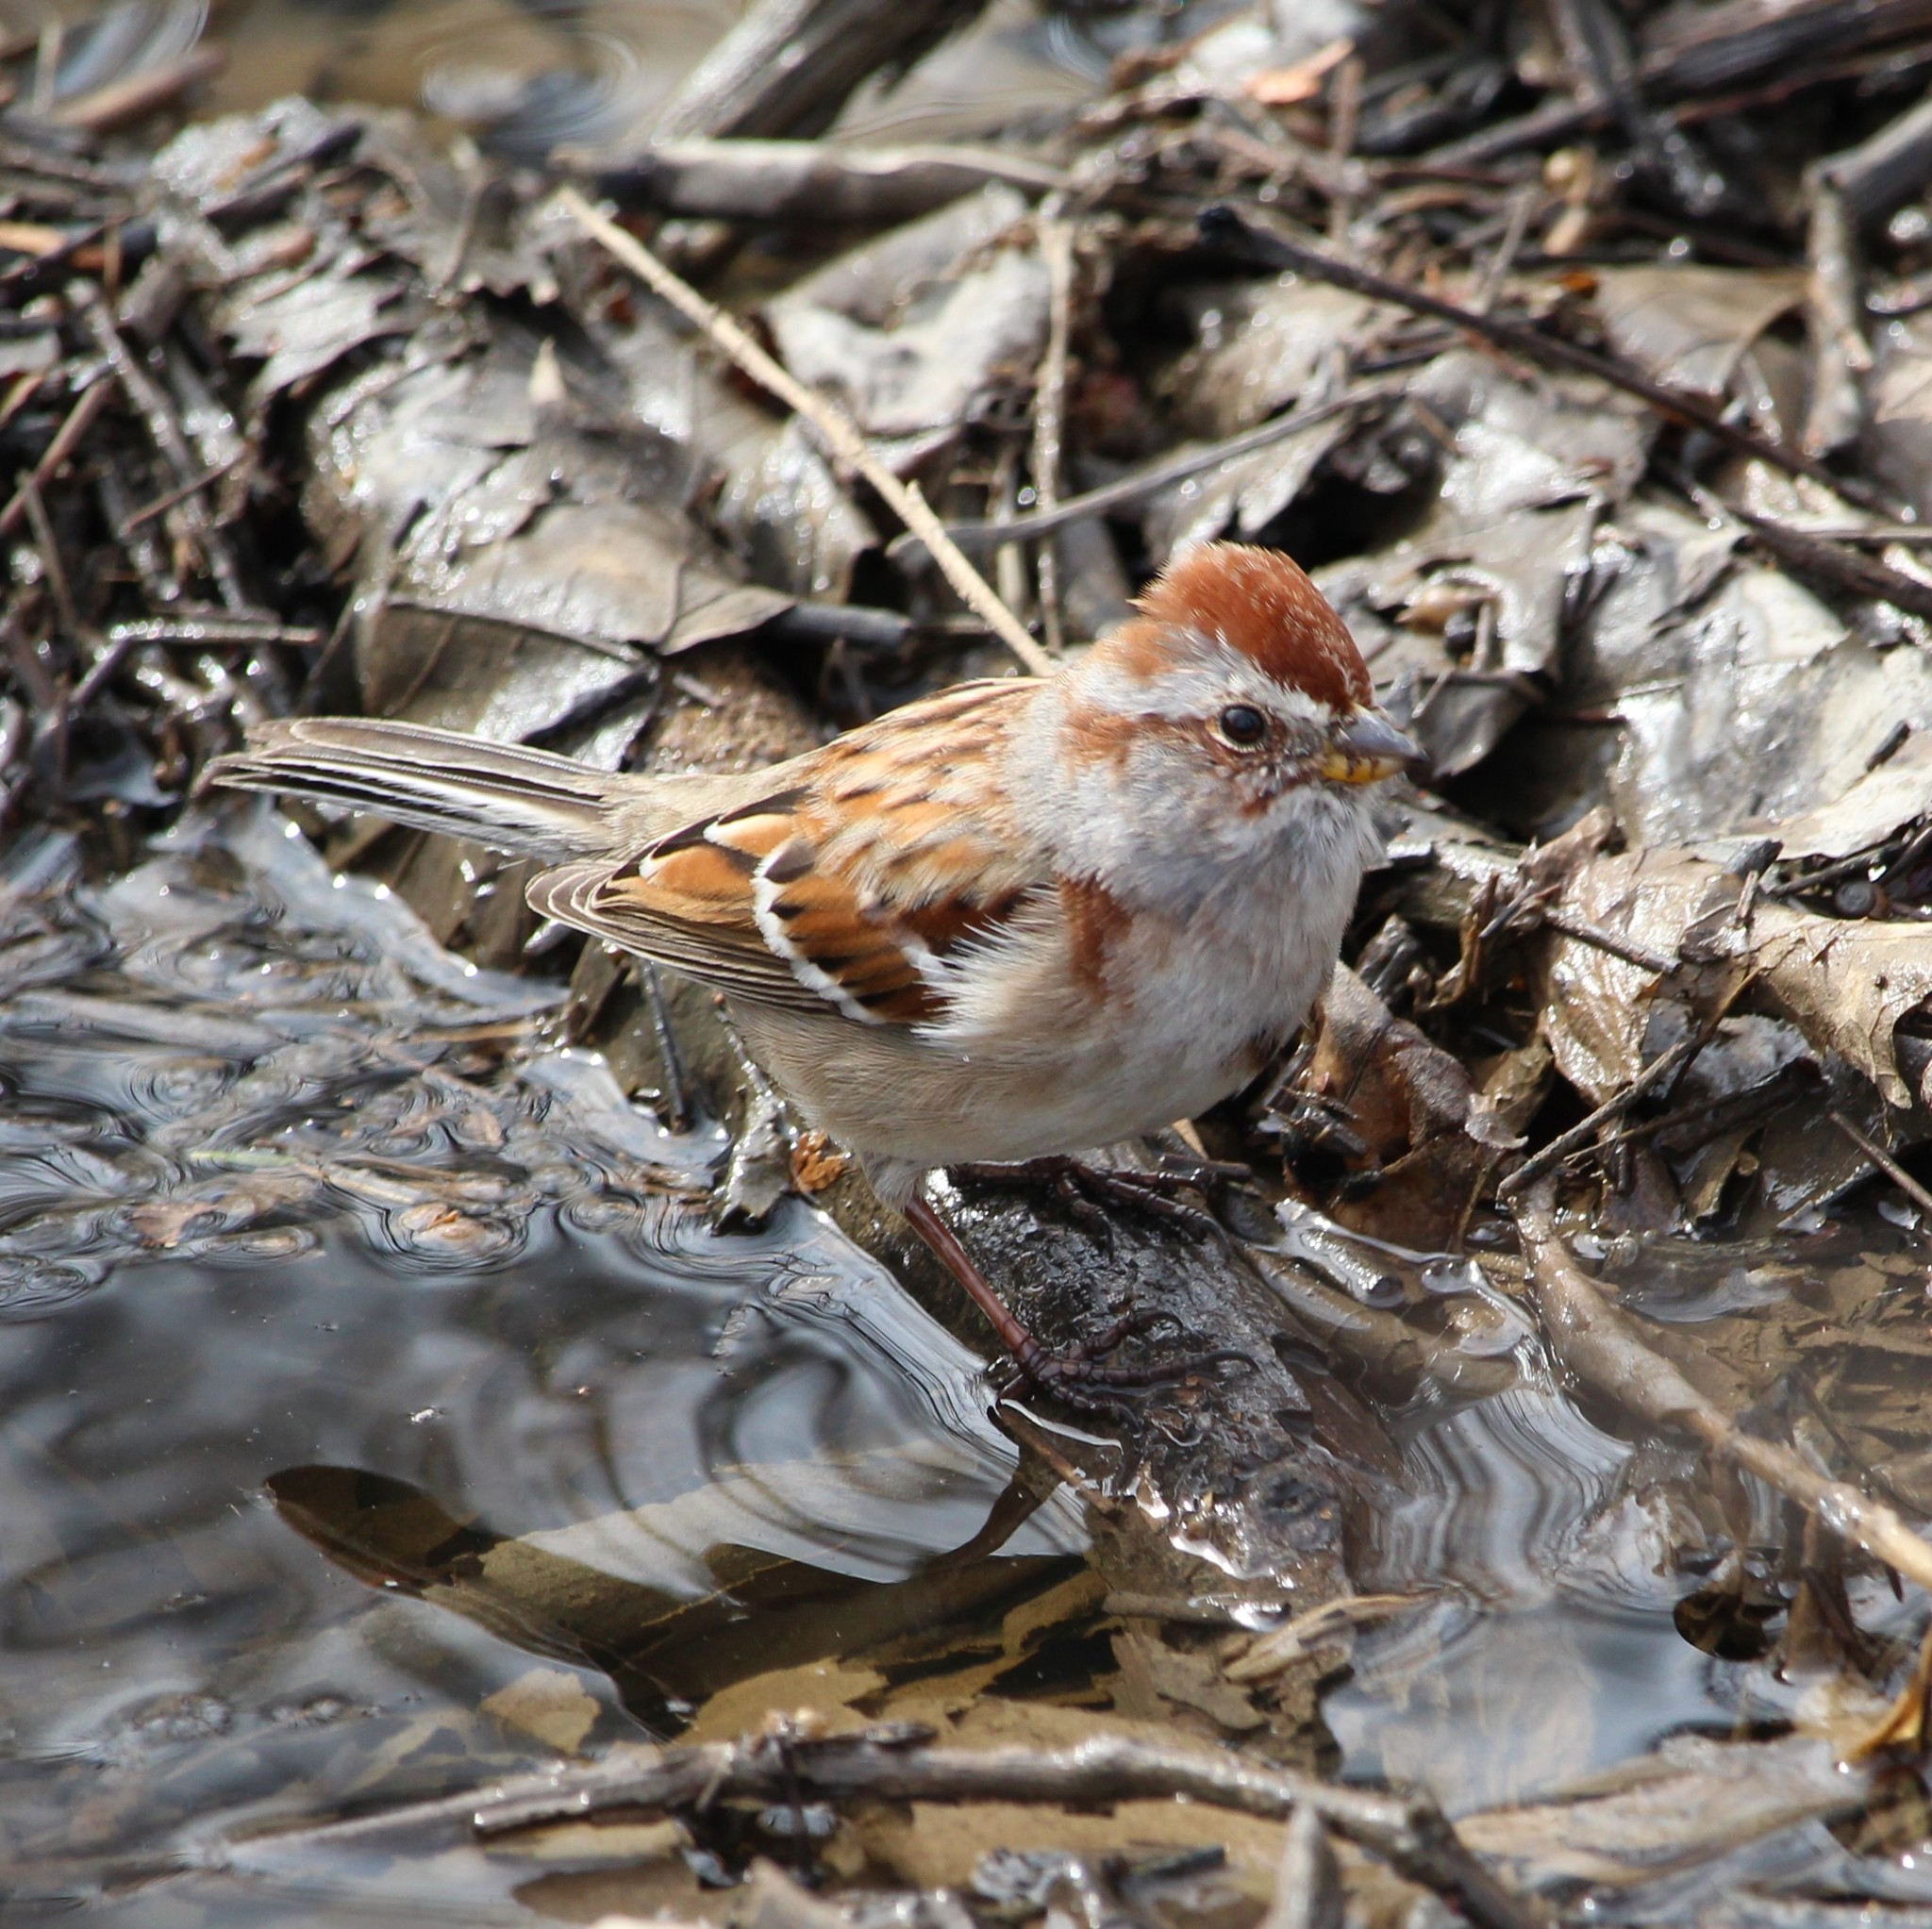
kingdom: Animalia
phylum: Chordata
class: Aves
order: Passeriformes
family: Passerellidae
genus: Spizelloides
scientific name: Spizelloides arborea
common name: American tree sparrow
